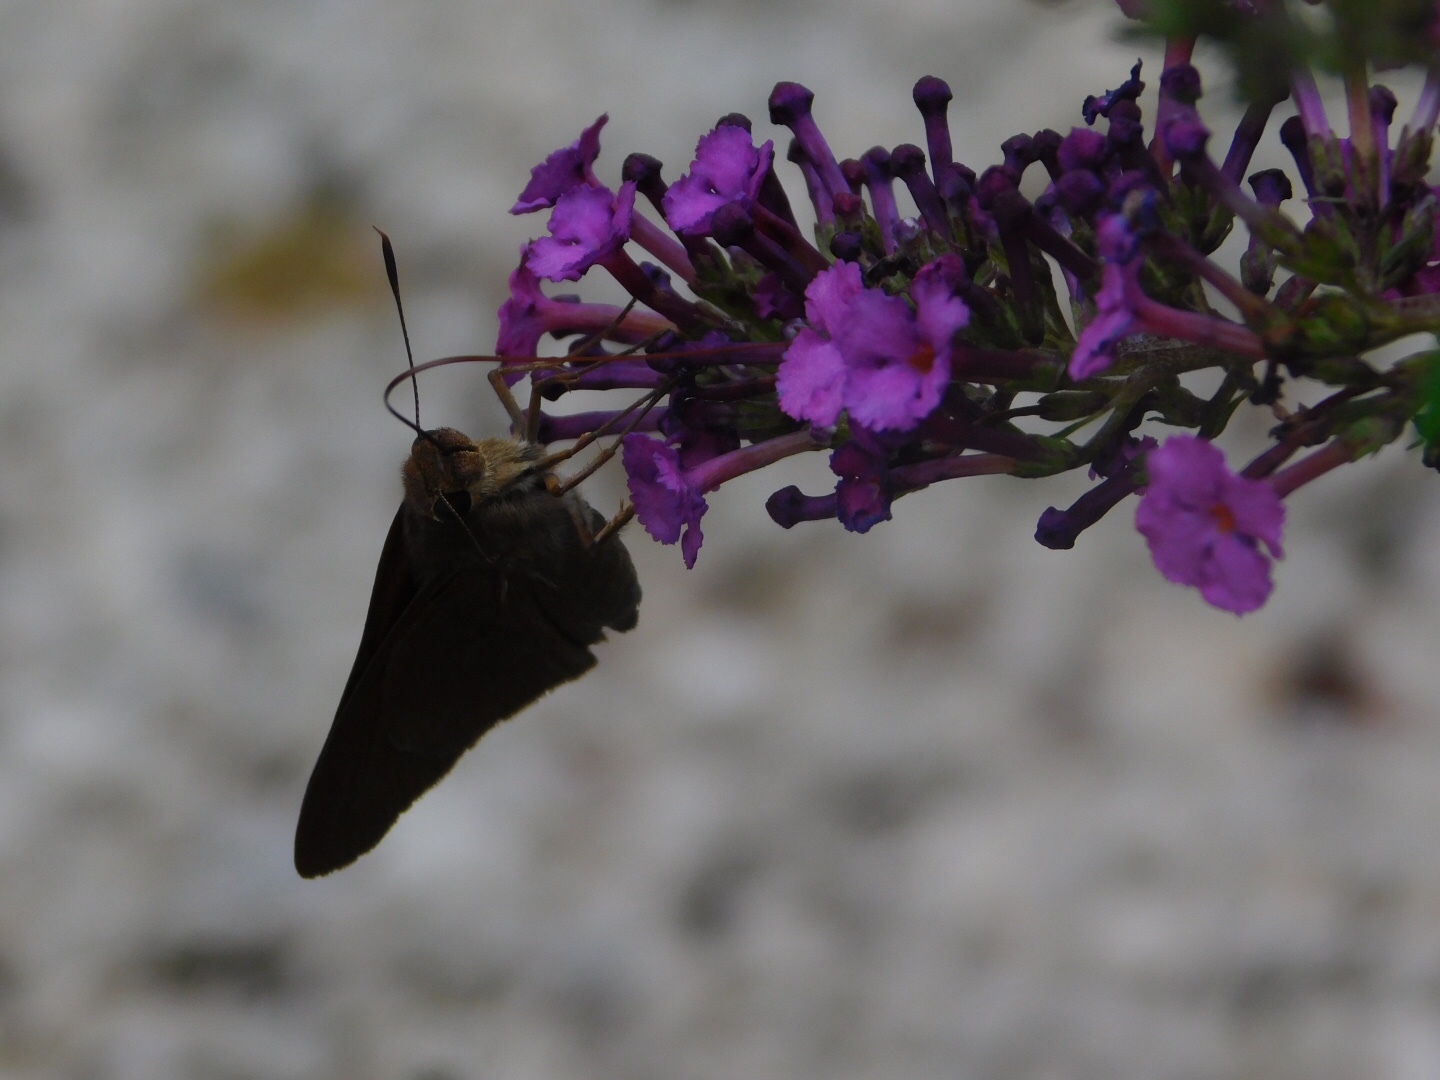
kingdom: Animalia
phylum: Arthropoda
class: Insecta
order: Lepidoptera
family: Hesperiidae
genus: Asbolis
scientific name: Asbolis capucinus
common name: Monk skipper
